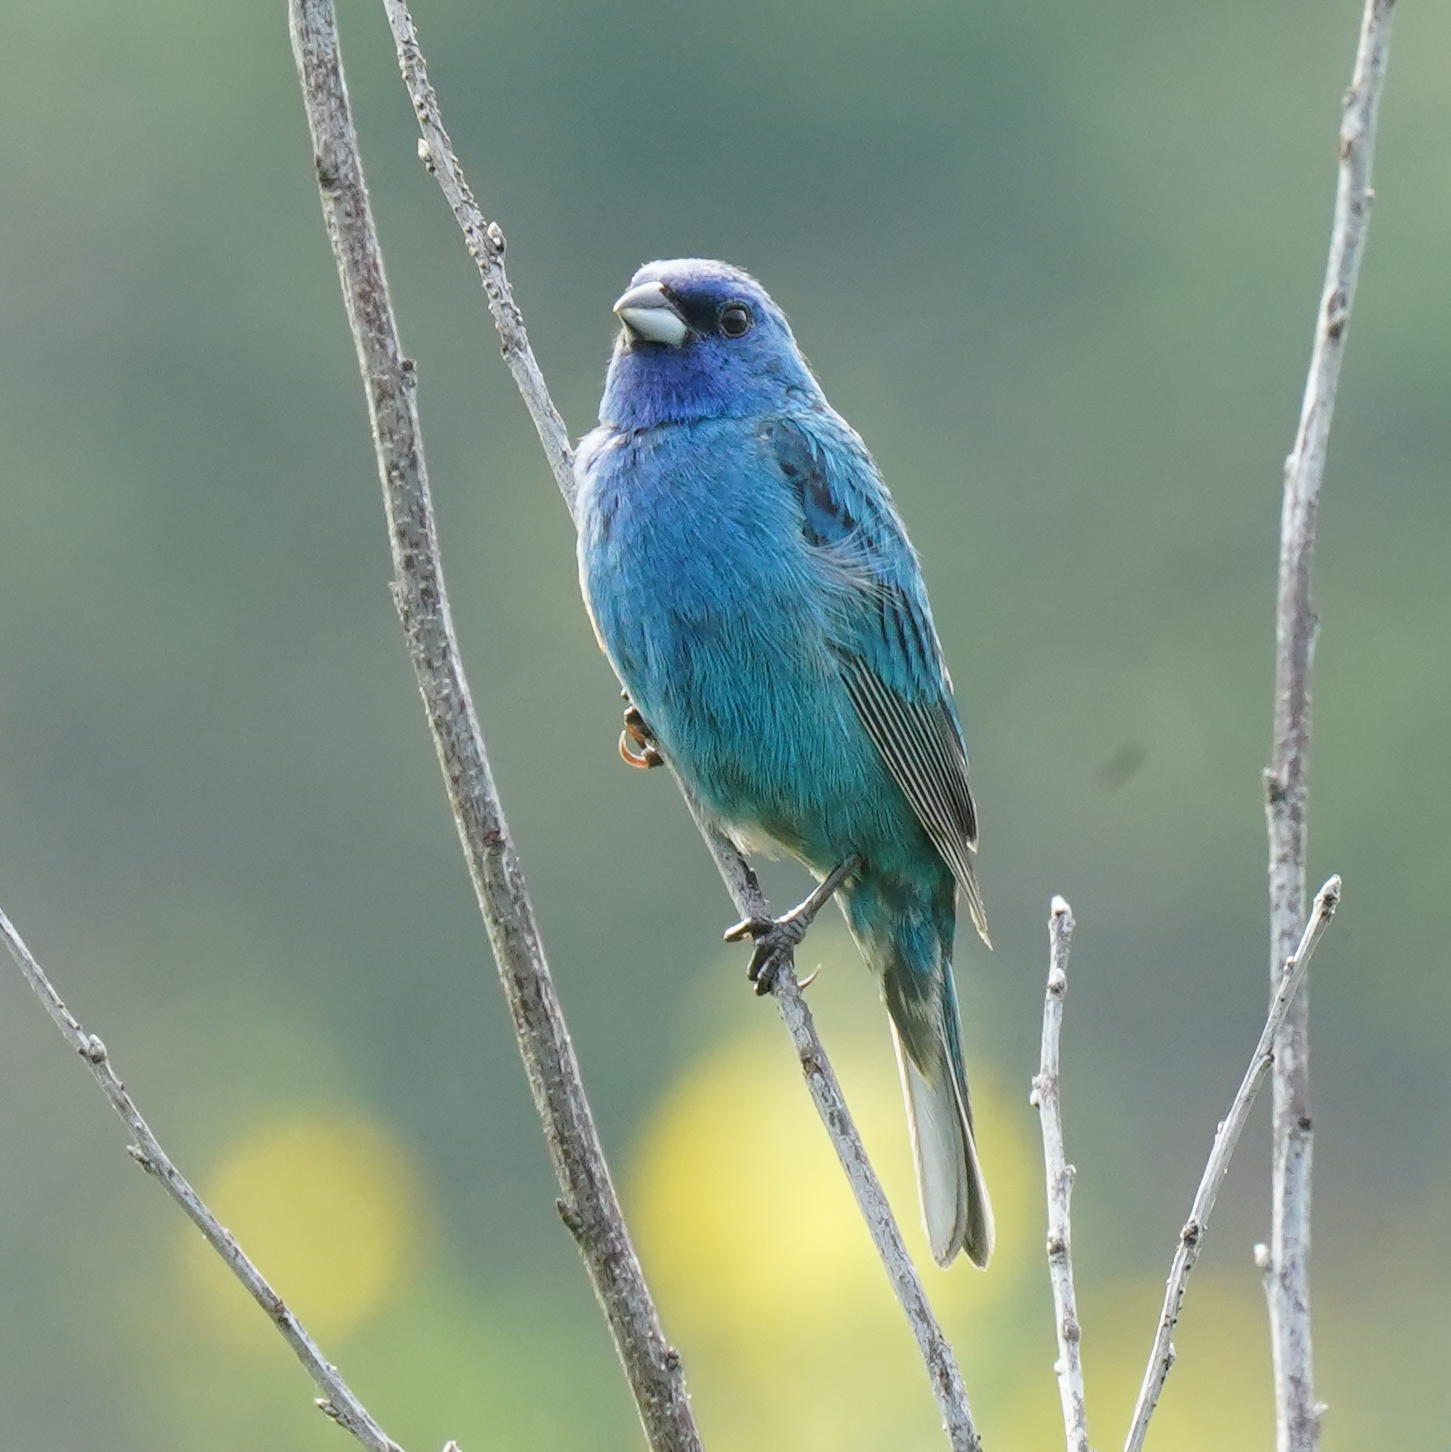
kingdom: Animalia
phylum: Chordata
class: Aves
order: Passeriformes
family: Cardinalidae
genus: Passerina
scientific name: Passerina cyanea
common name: Indigo bunting
